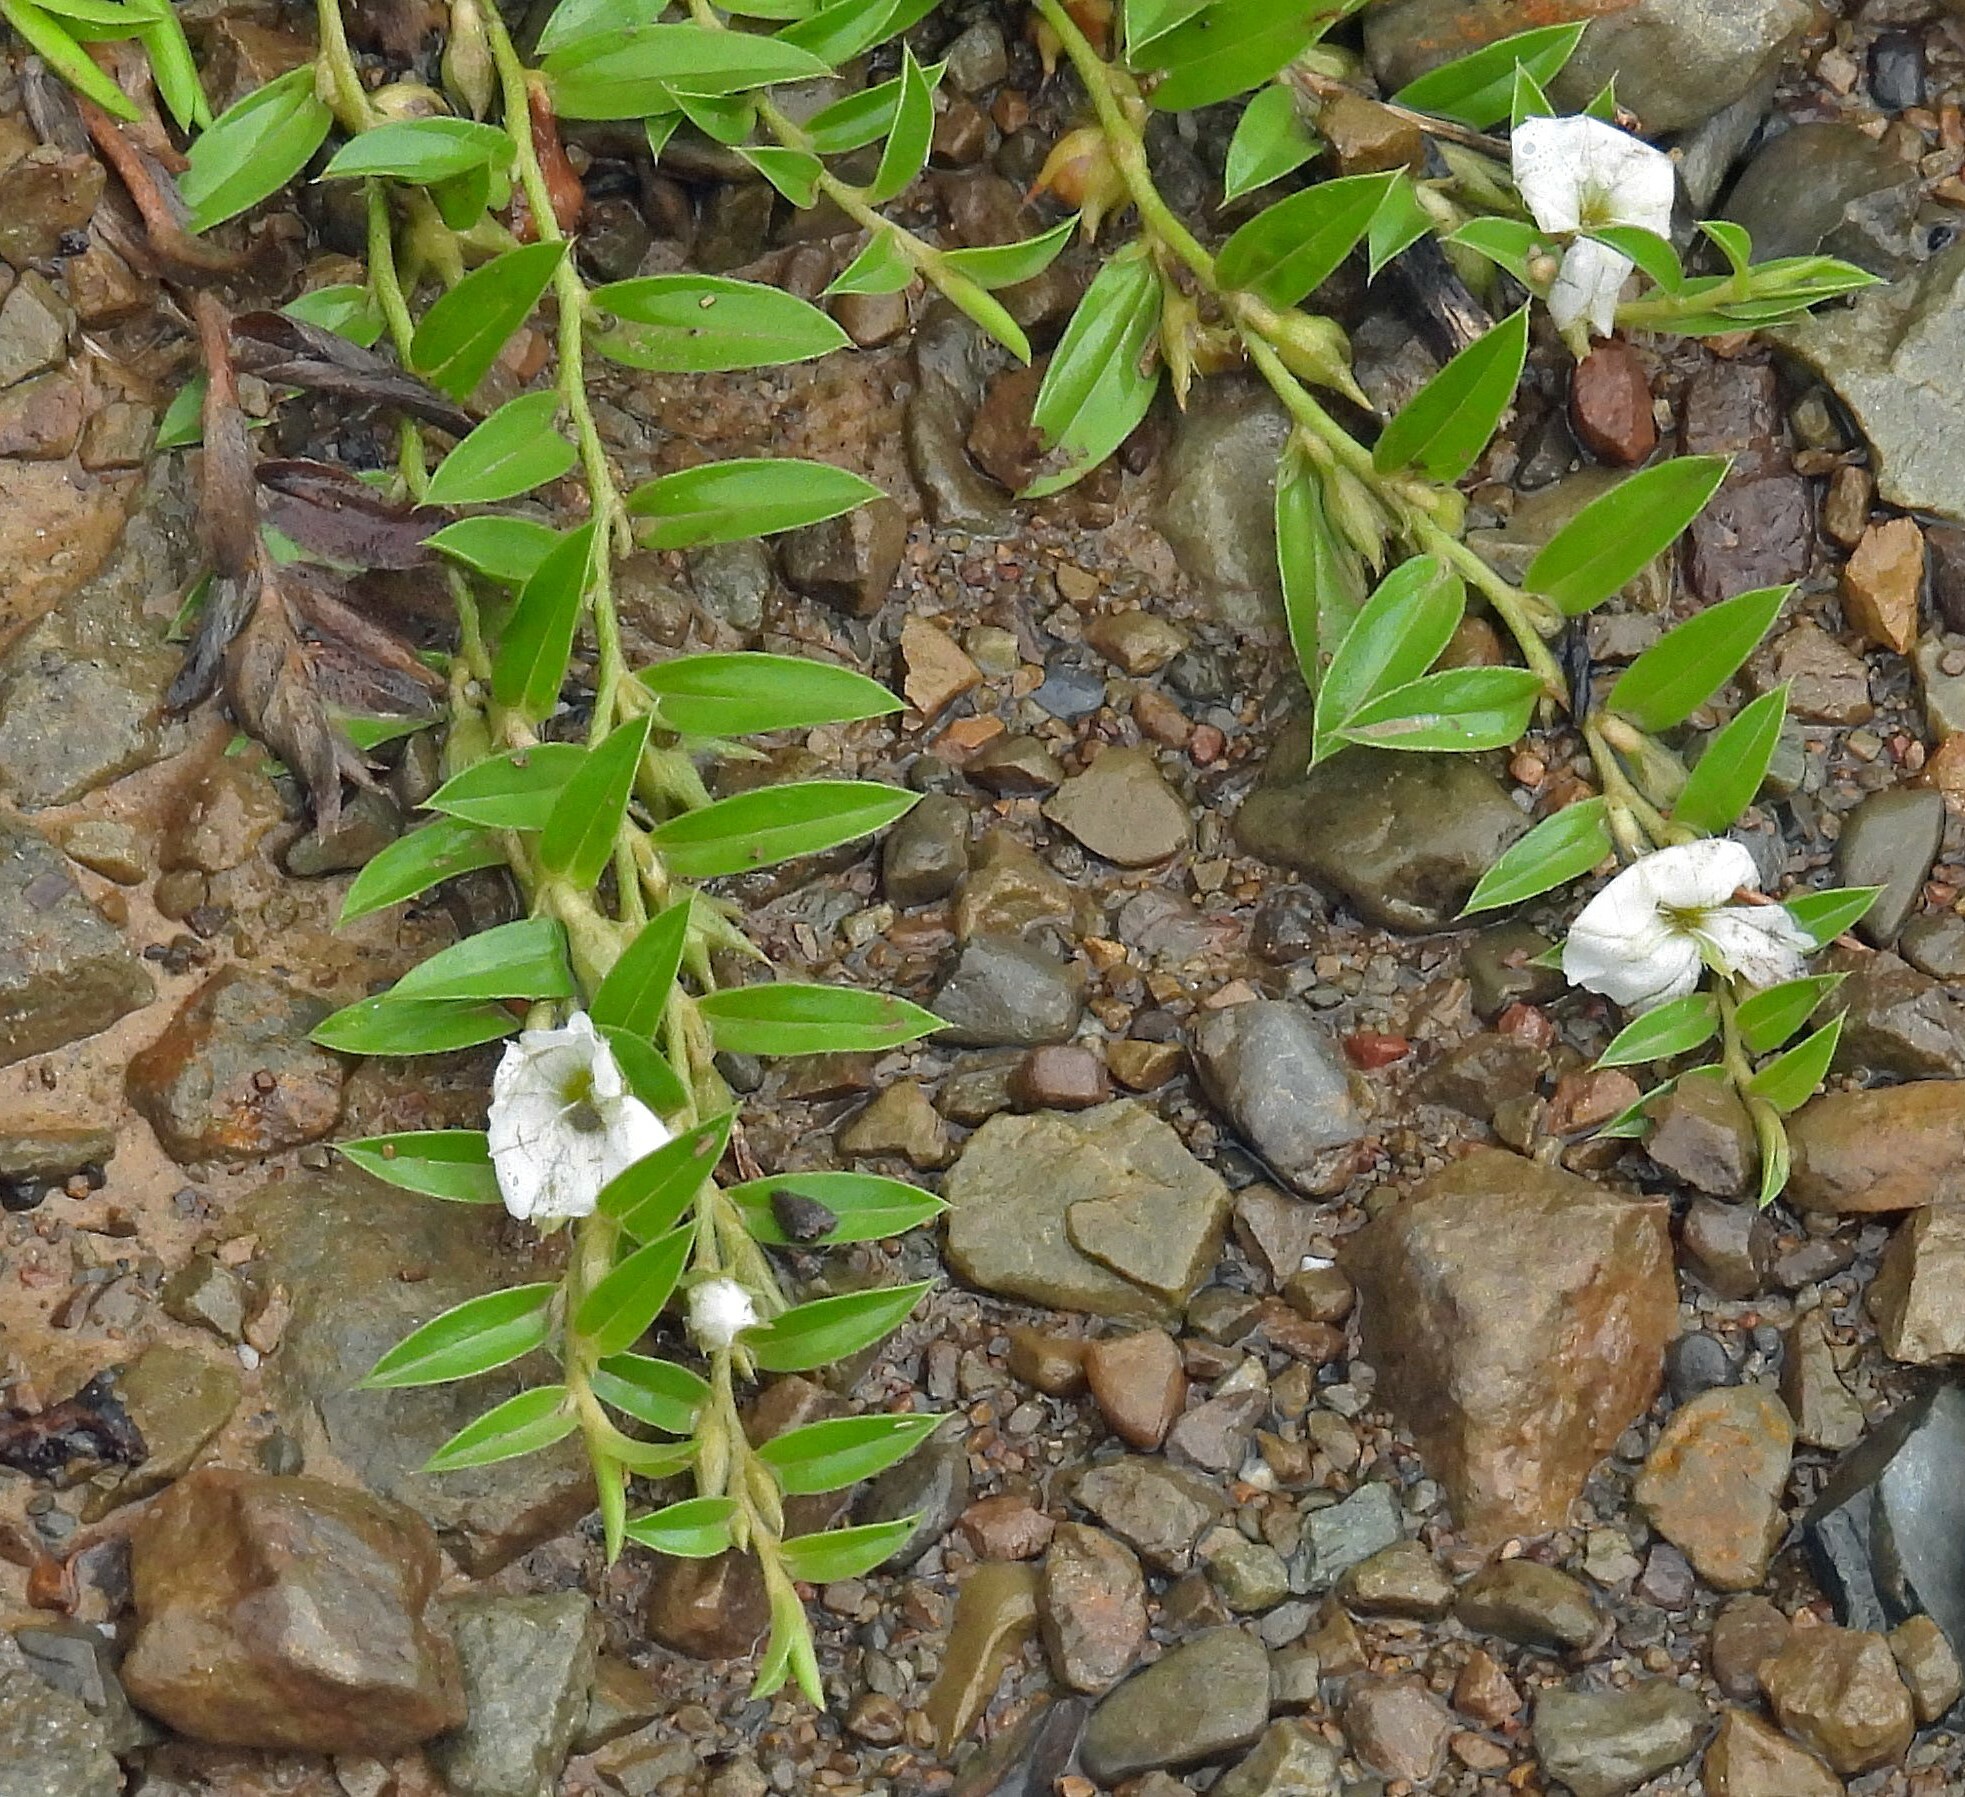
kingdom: Plantae
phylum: Tracheophyta
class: Magnoliopsida
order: Solanales
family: Convolvulaceae
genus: Evolvulus
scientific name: Evolvulus sericeus
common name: Blue dots
